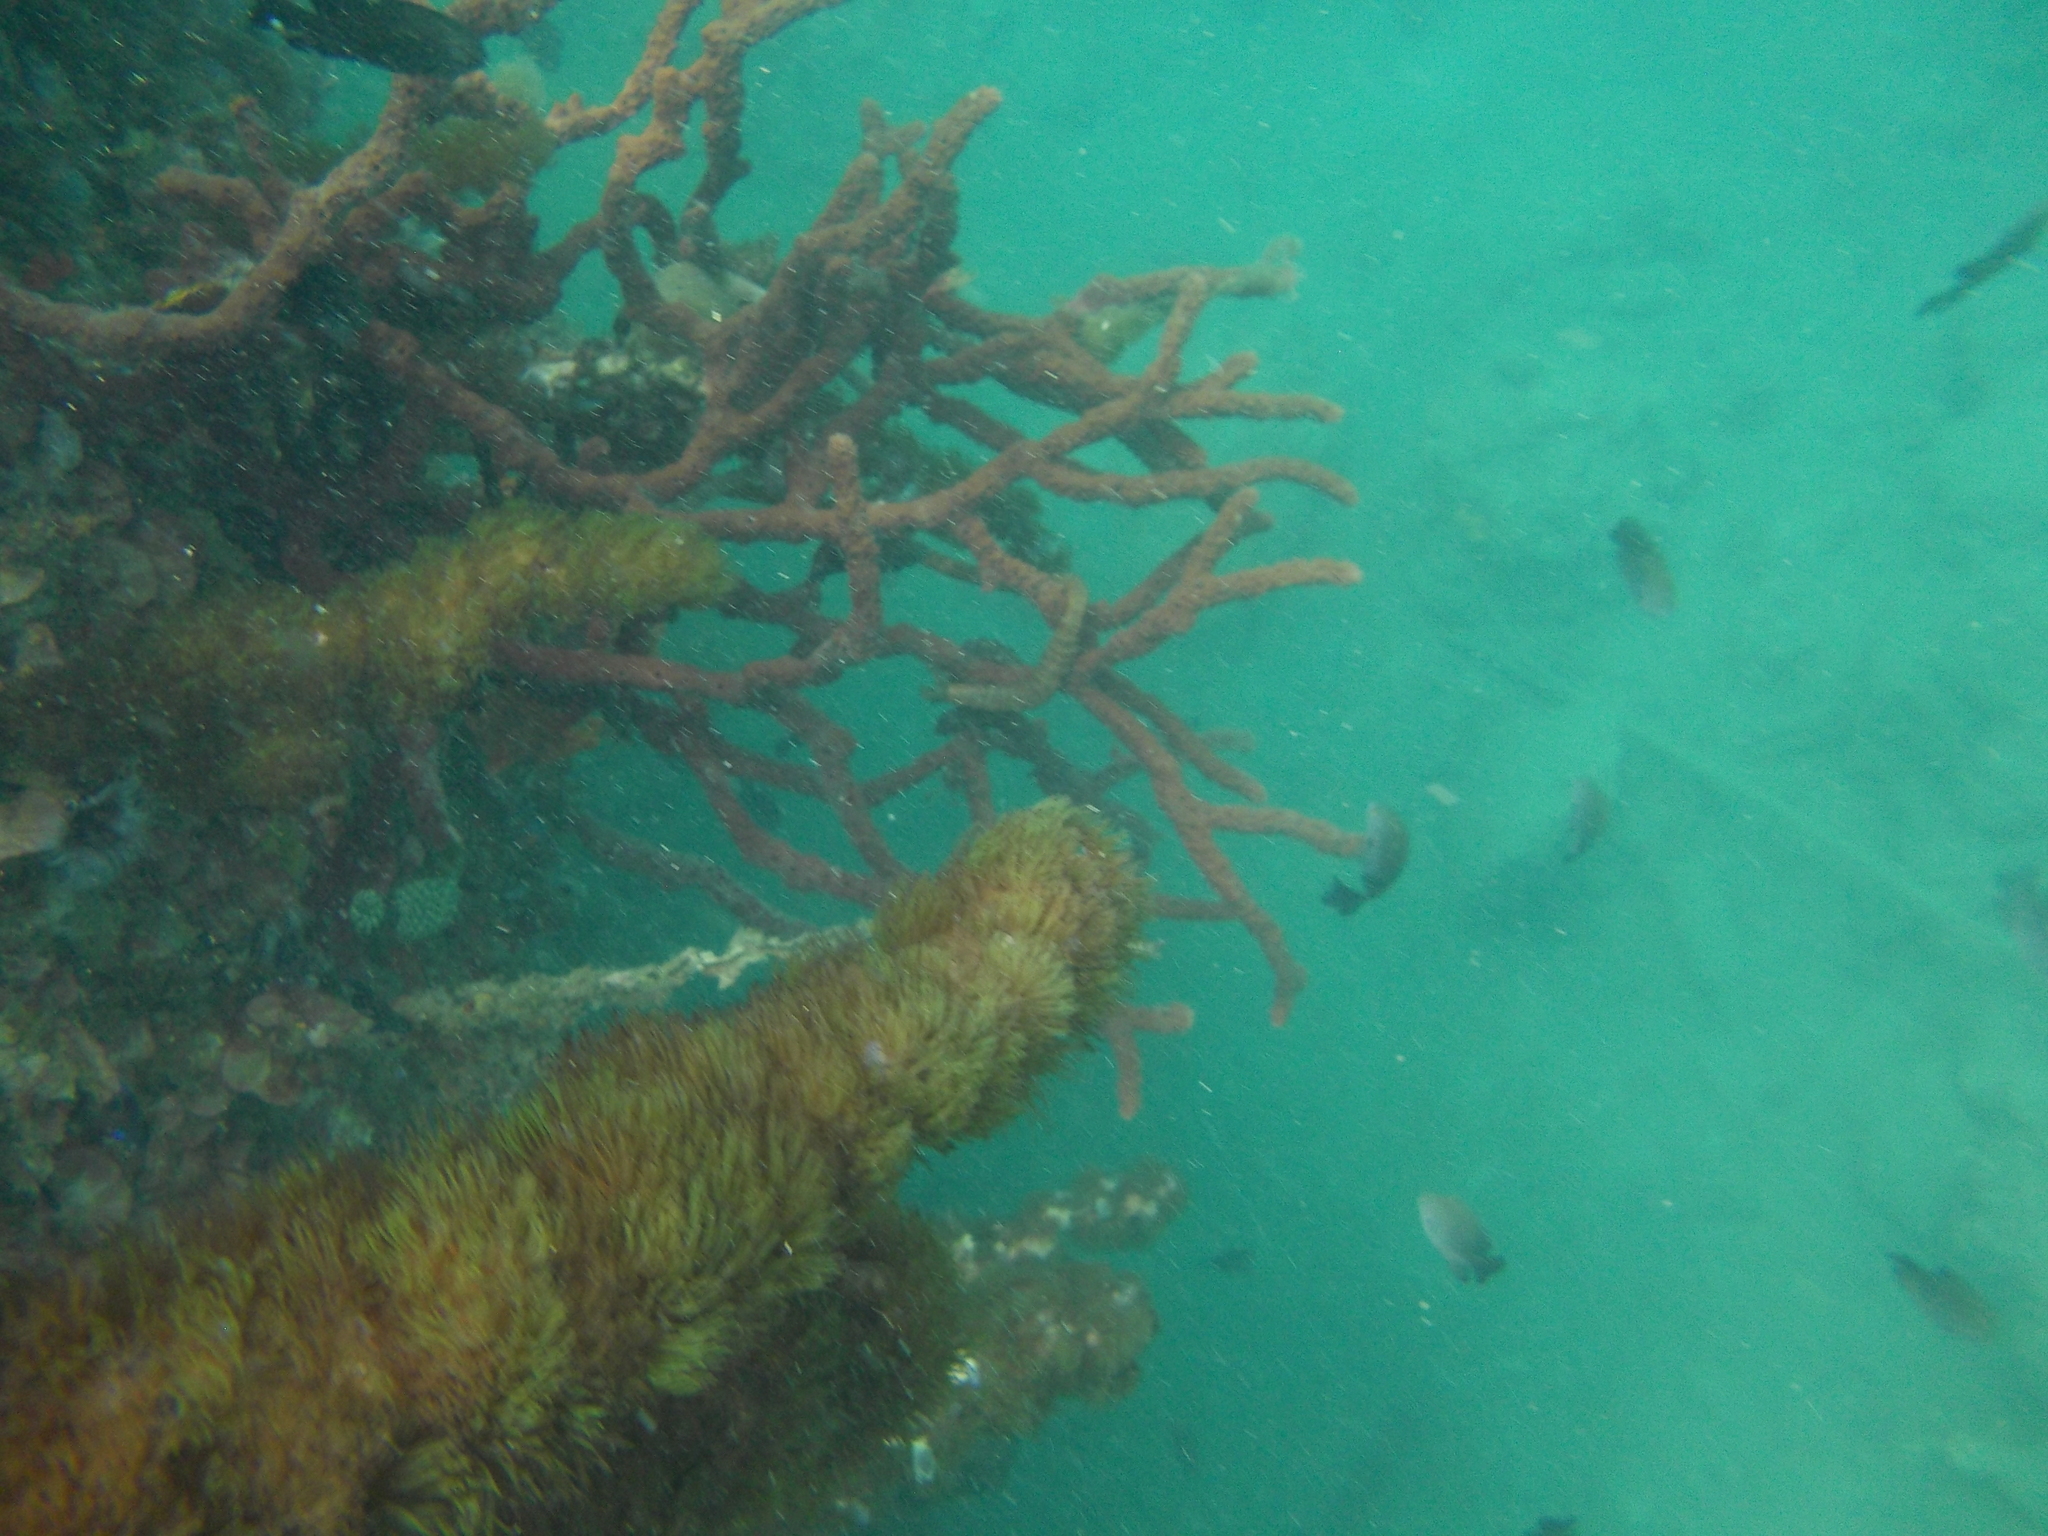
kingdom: Animalia
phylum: Cnidaria
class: Anthozoa
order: Zoantharia
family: Zoanthidae
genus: Acrozoanthus
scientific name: Acrozoanthus australiae
